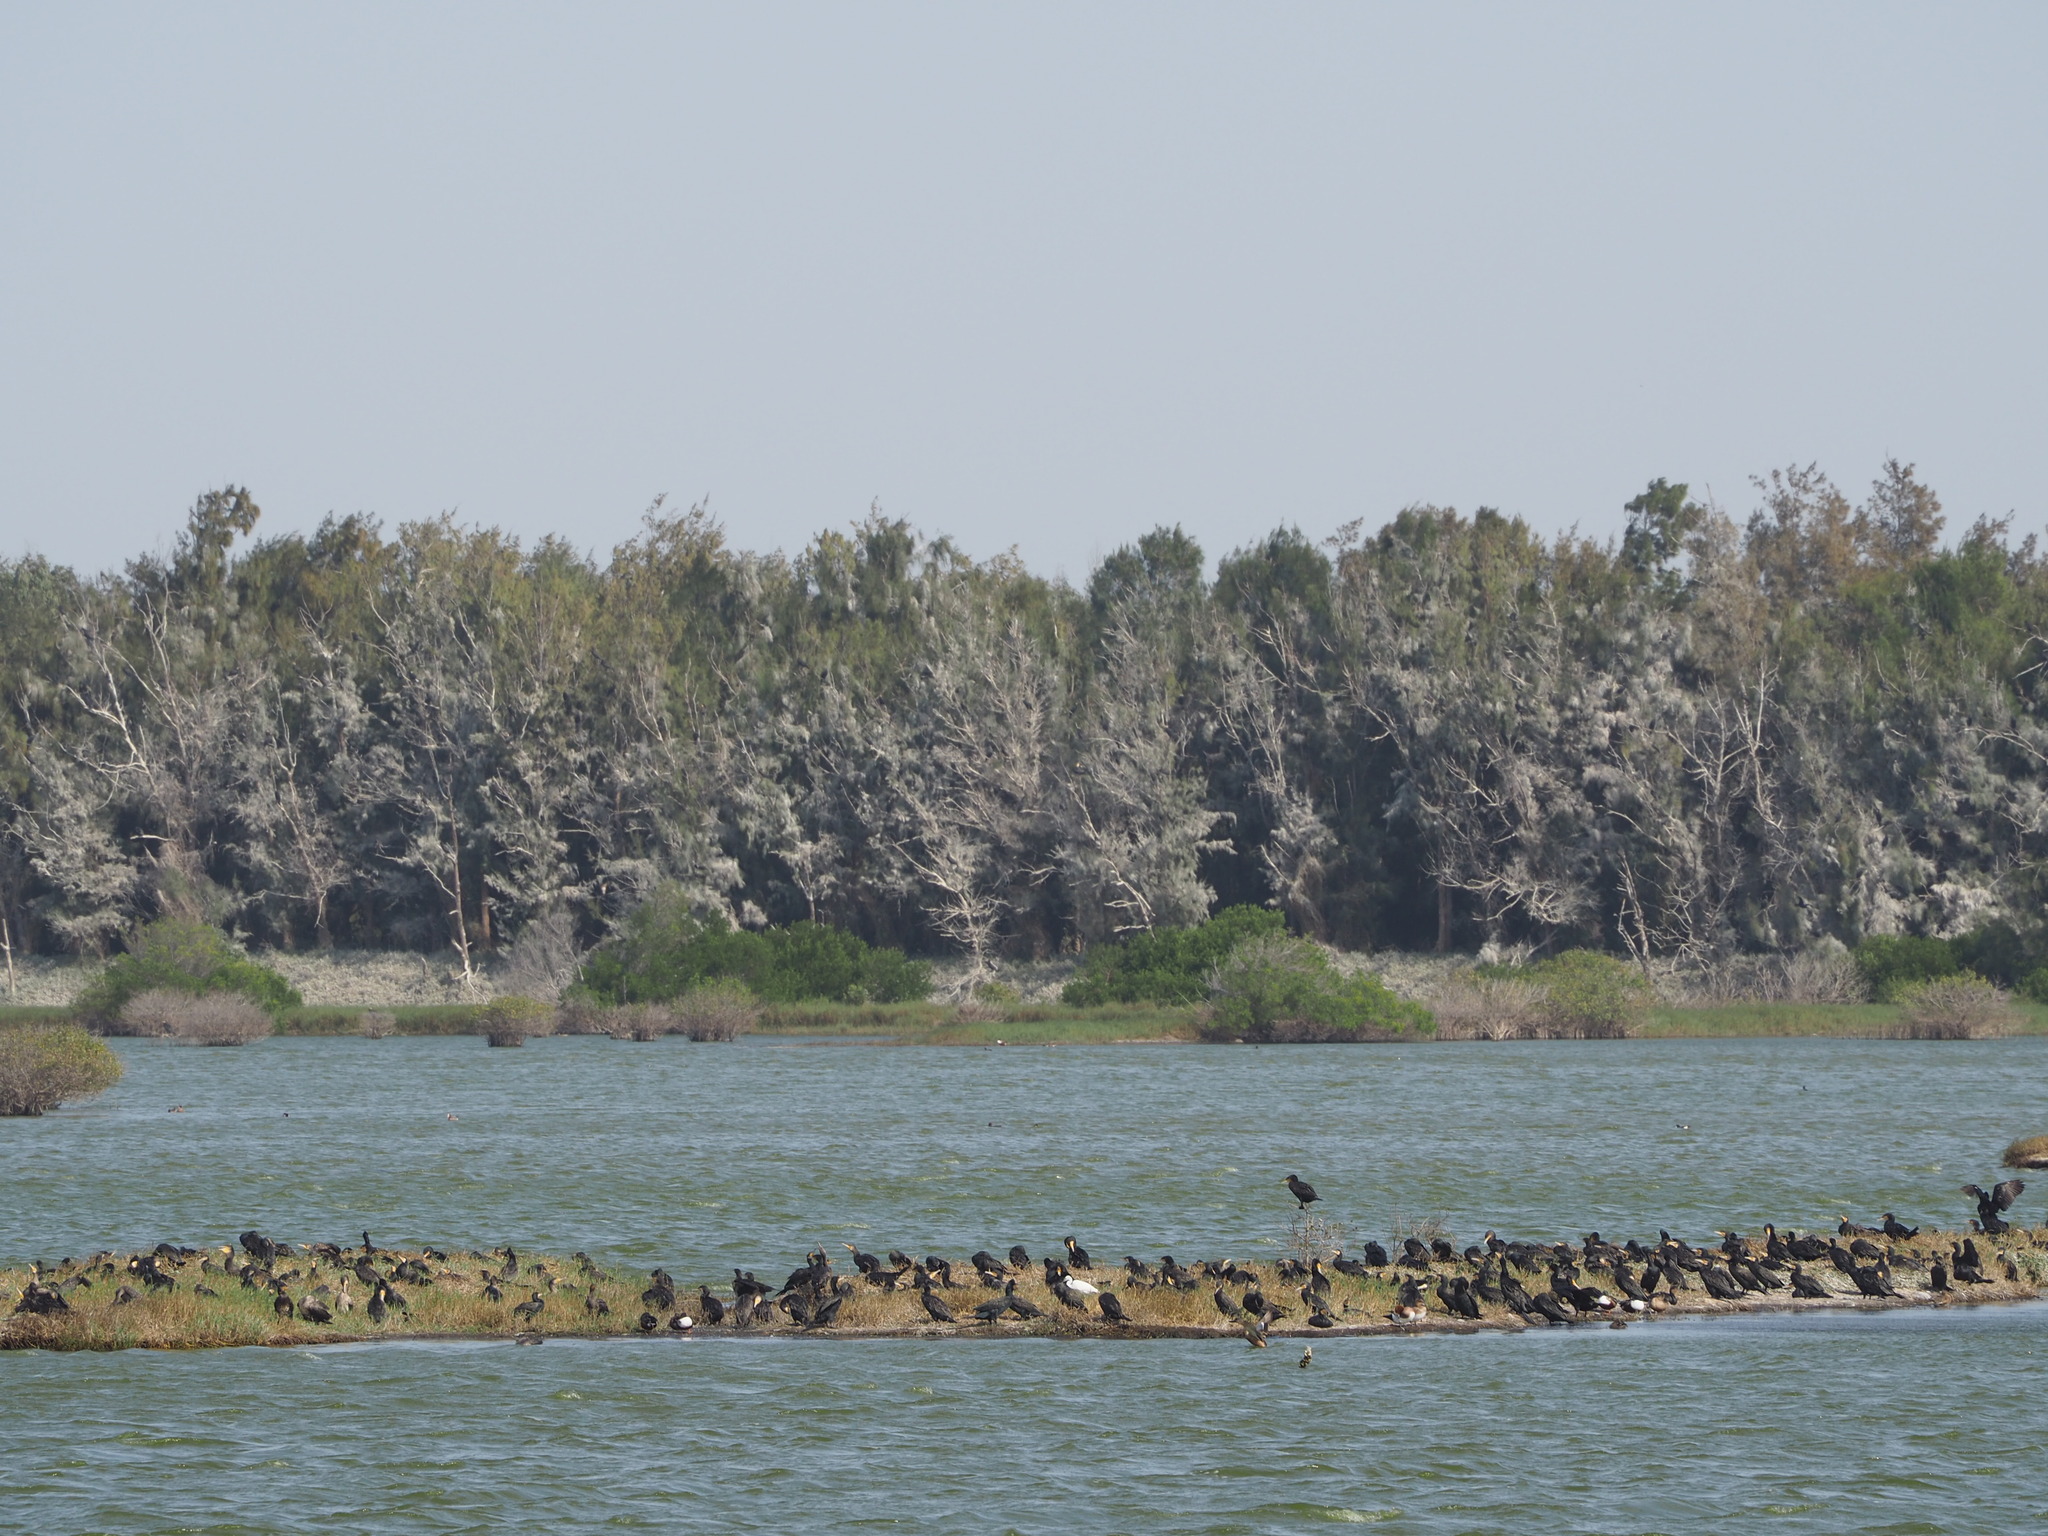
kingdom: Animalia
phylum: Chordata
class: Aves
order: Suliformes
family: Phalacrocoracidae
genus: Phalacrocorax
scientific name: Phalacrocorax carbo
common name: Great cormorant
